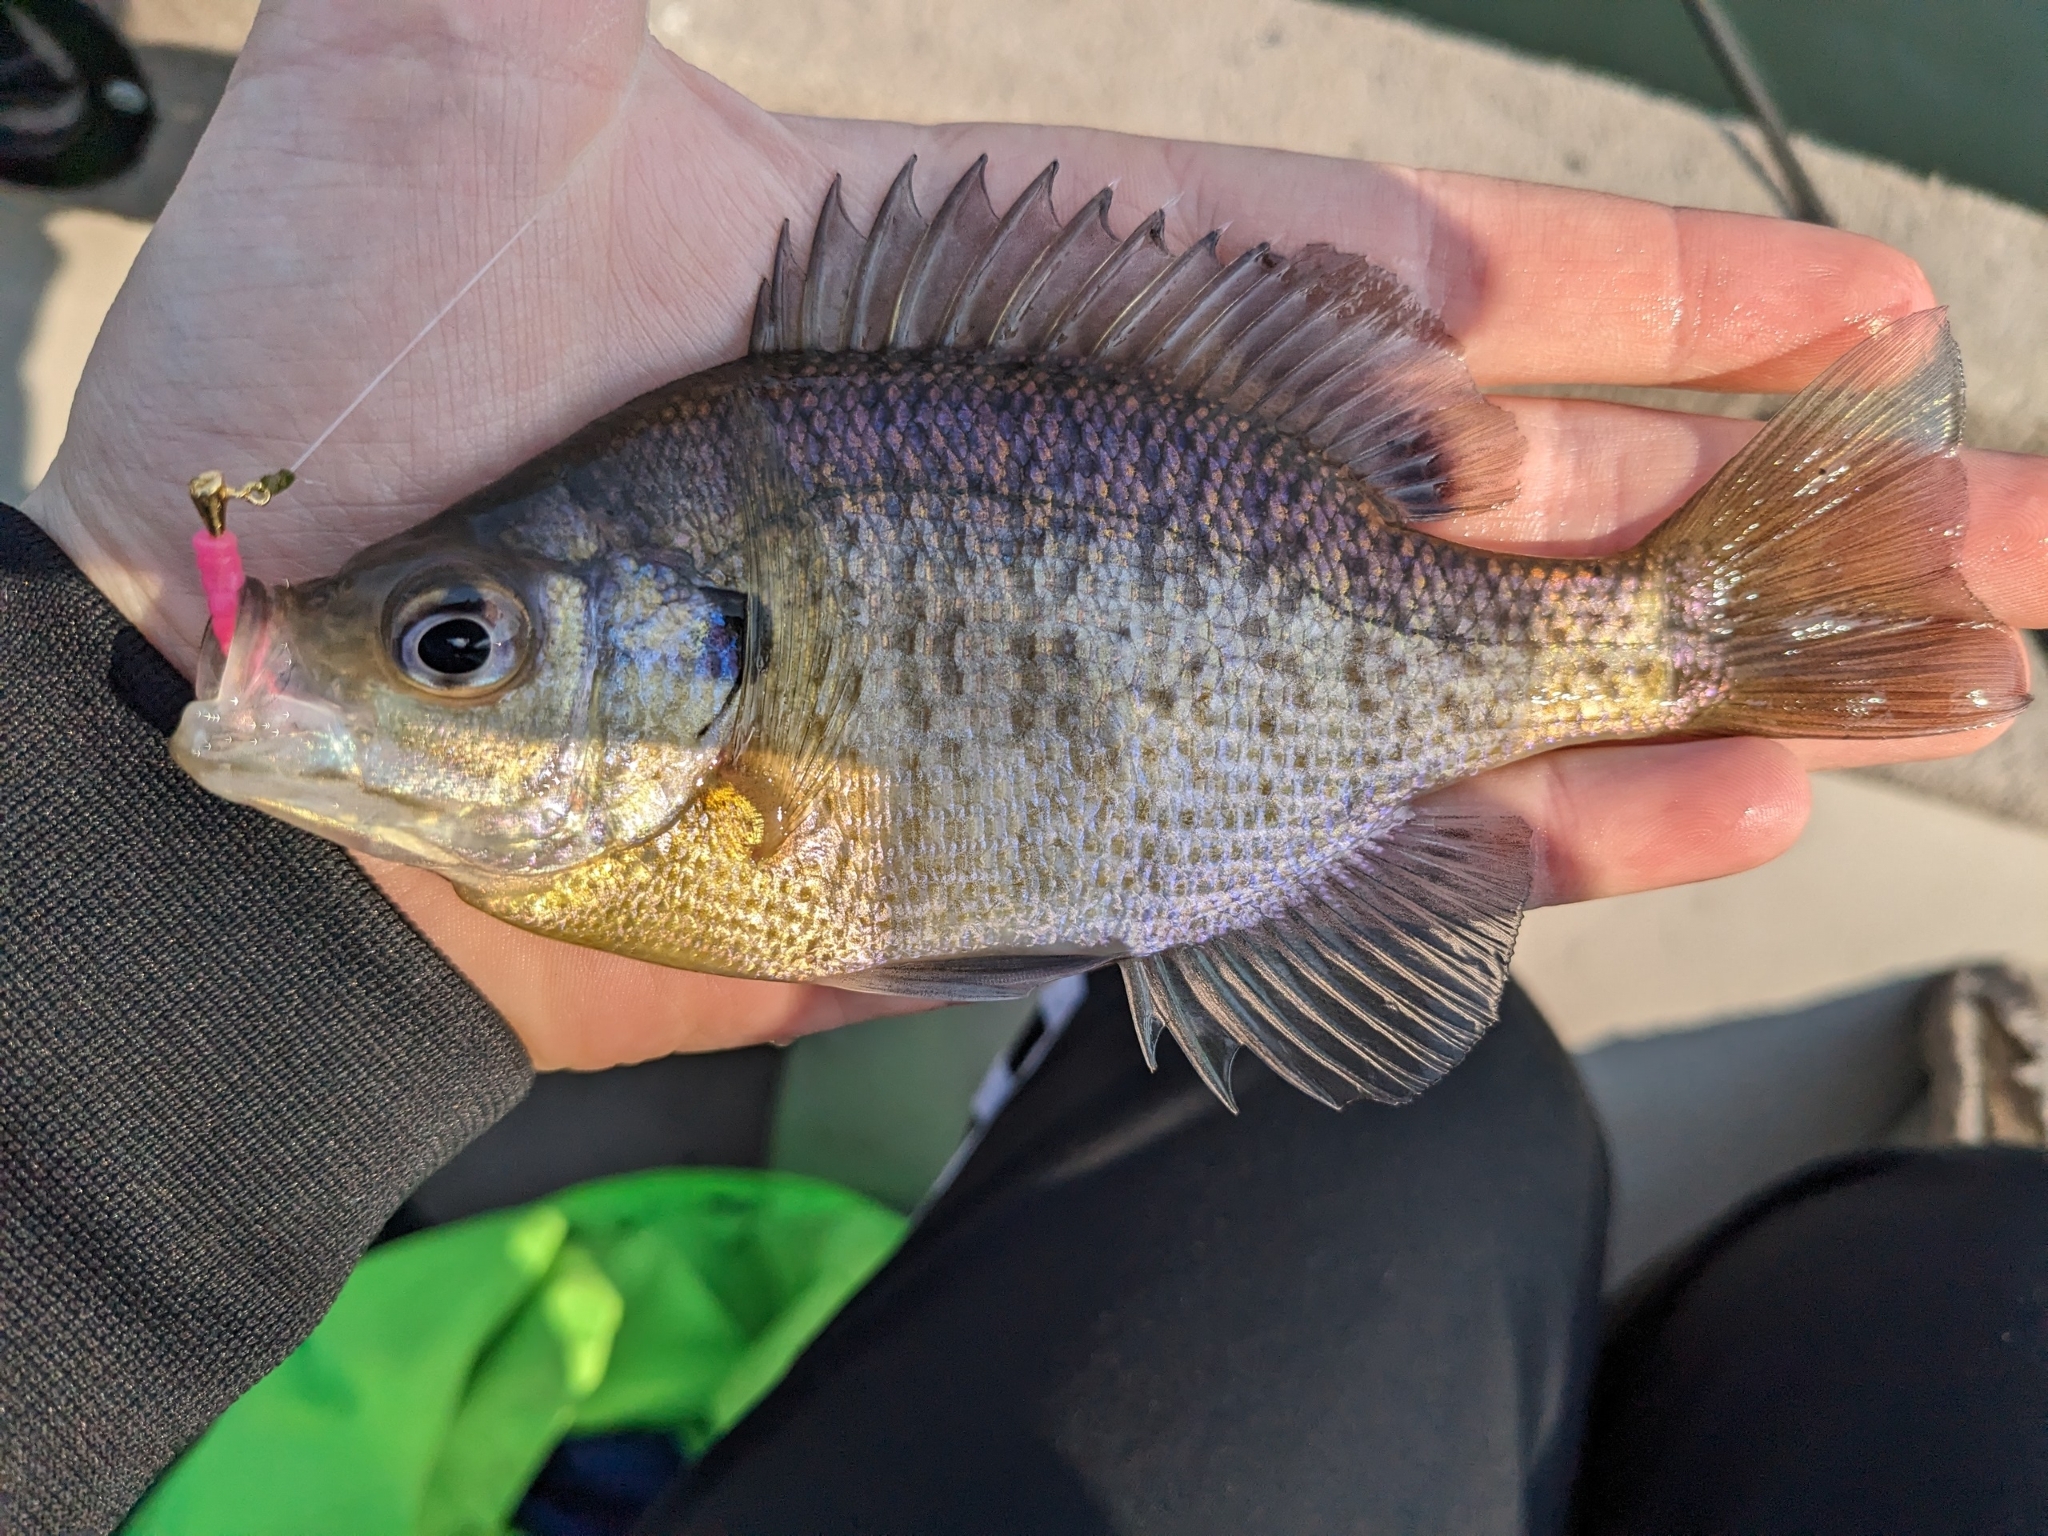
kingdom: Animalia
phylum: Chordata
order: Perciformes
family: Centrarchidae
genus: Lepomis
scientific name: Lepomis macrochirus
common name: Bluegill
